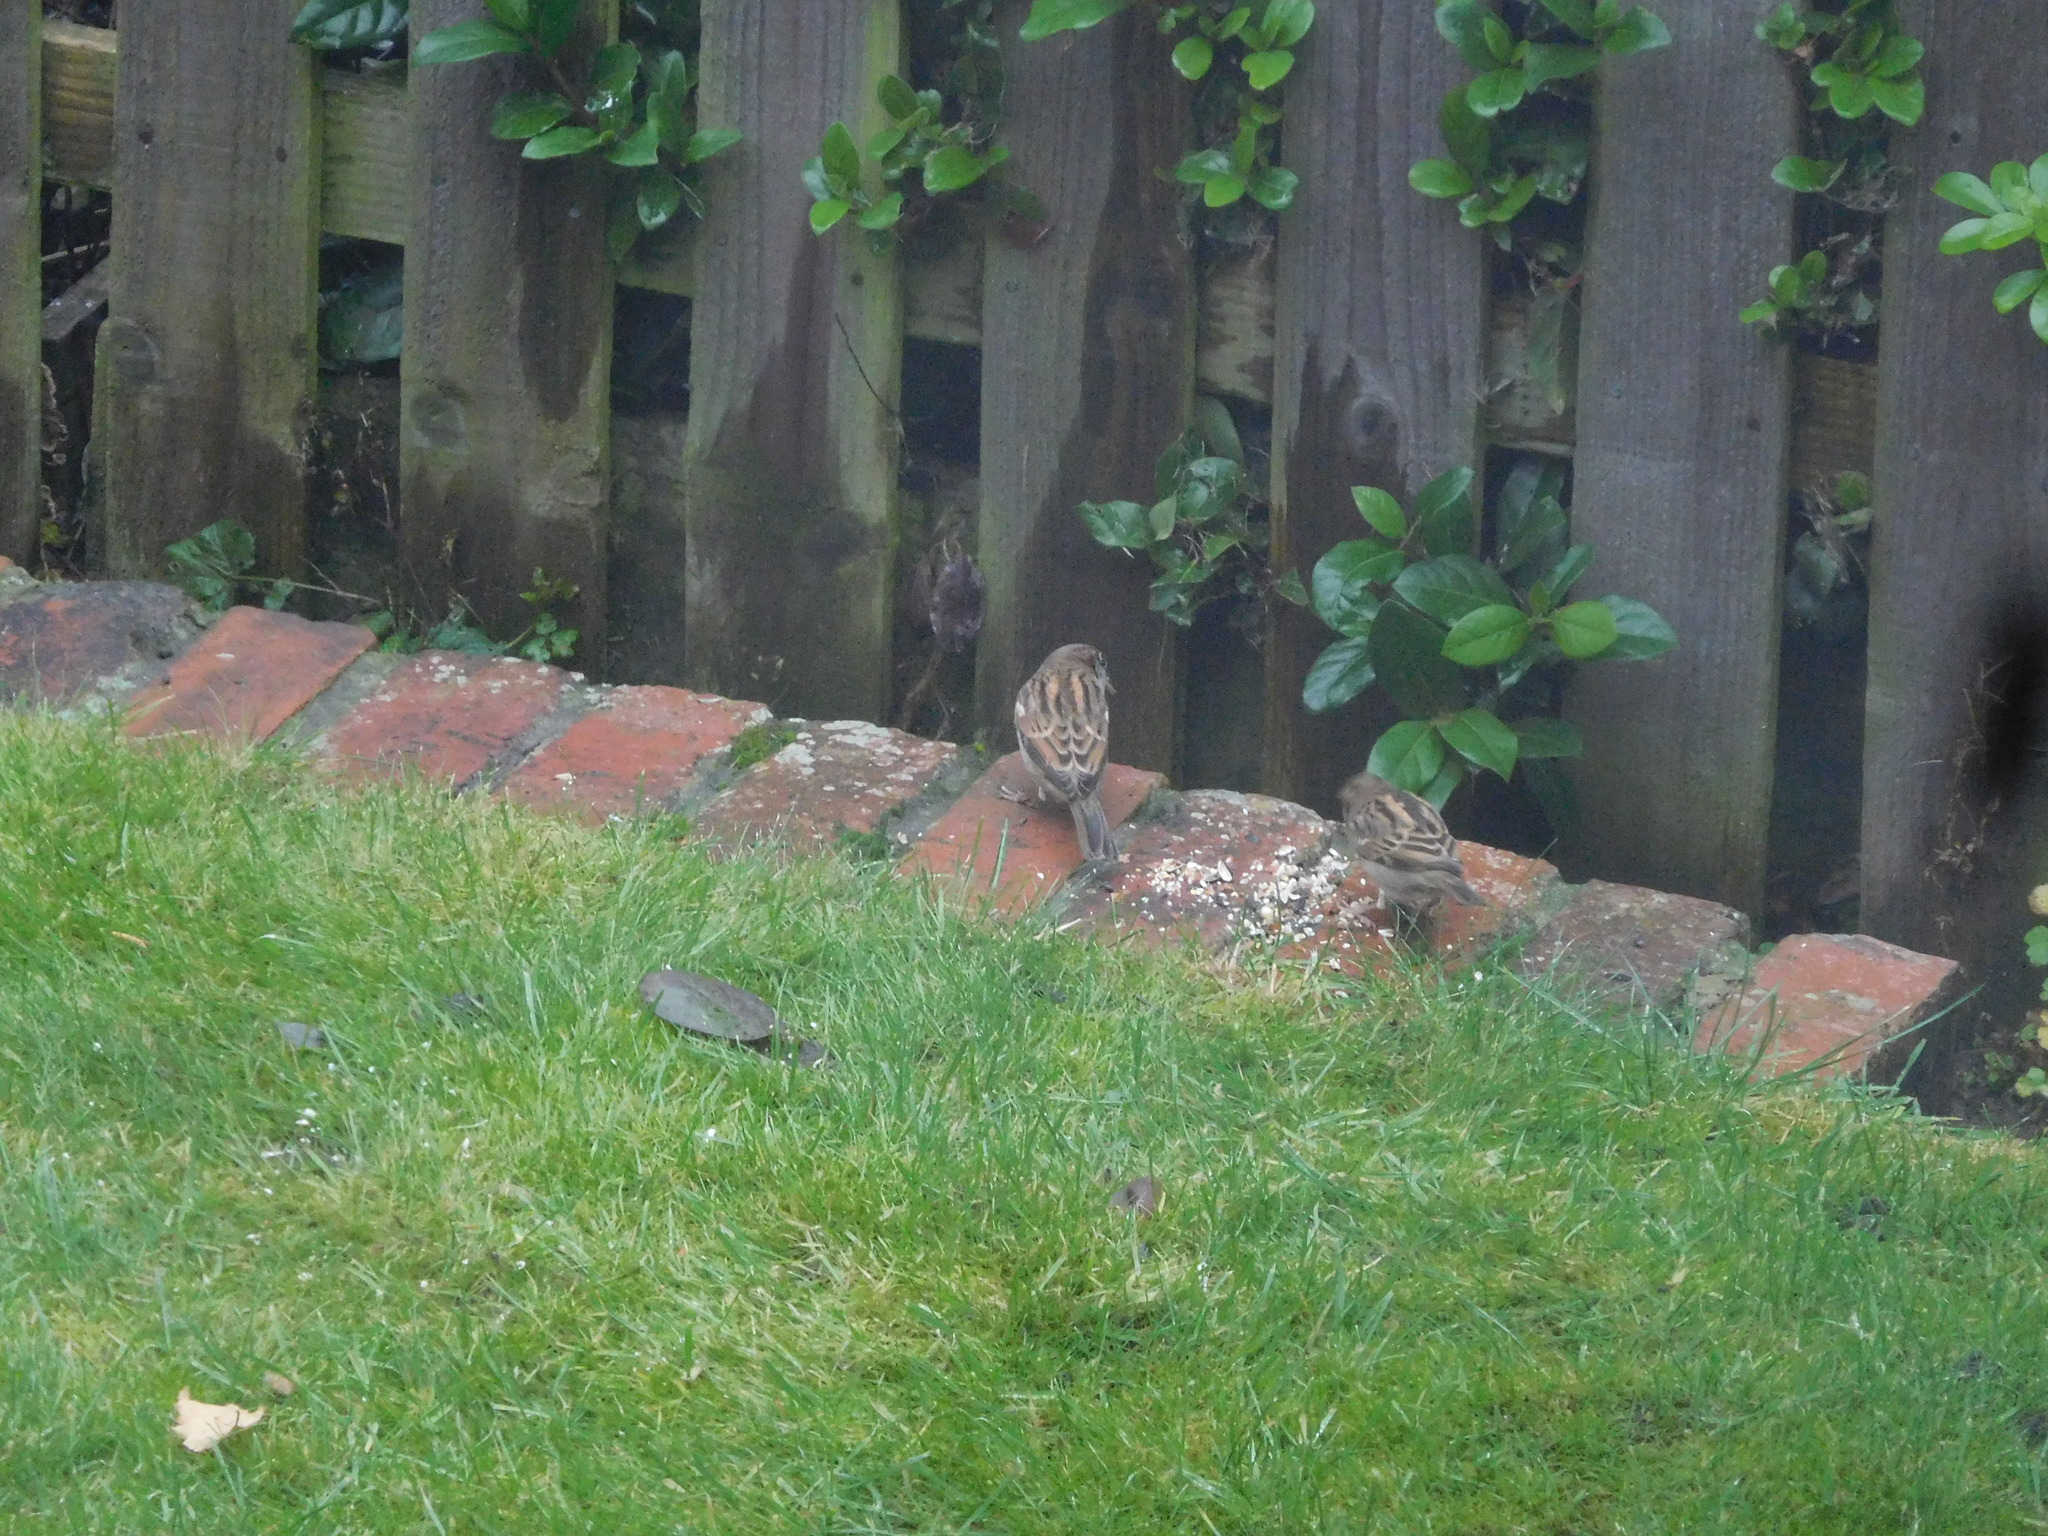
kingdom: Animalia
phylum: Chordata
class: Aves
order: Passeriformes
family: Passeridae
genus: Passer
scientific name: Passer domesticus
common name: House sparrow
